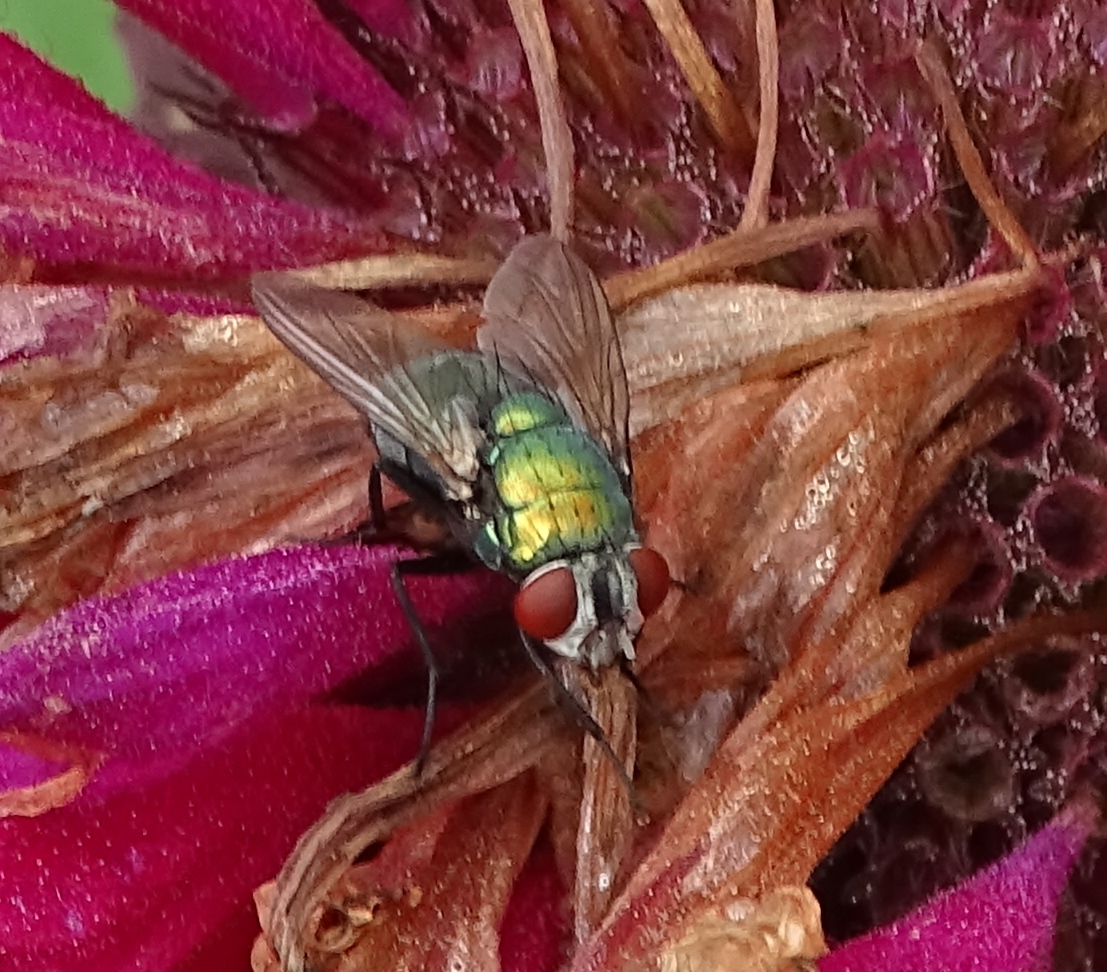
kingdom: Animalia
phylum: Arthropoda
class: Insecta
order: Diptera
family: Calliphoridae
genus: Lucilia
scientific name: Lucilia sericata
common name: Blow fly
